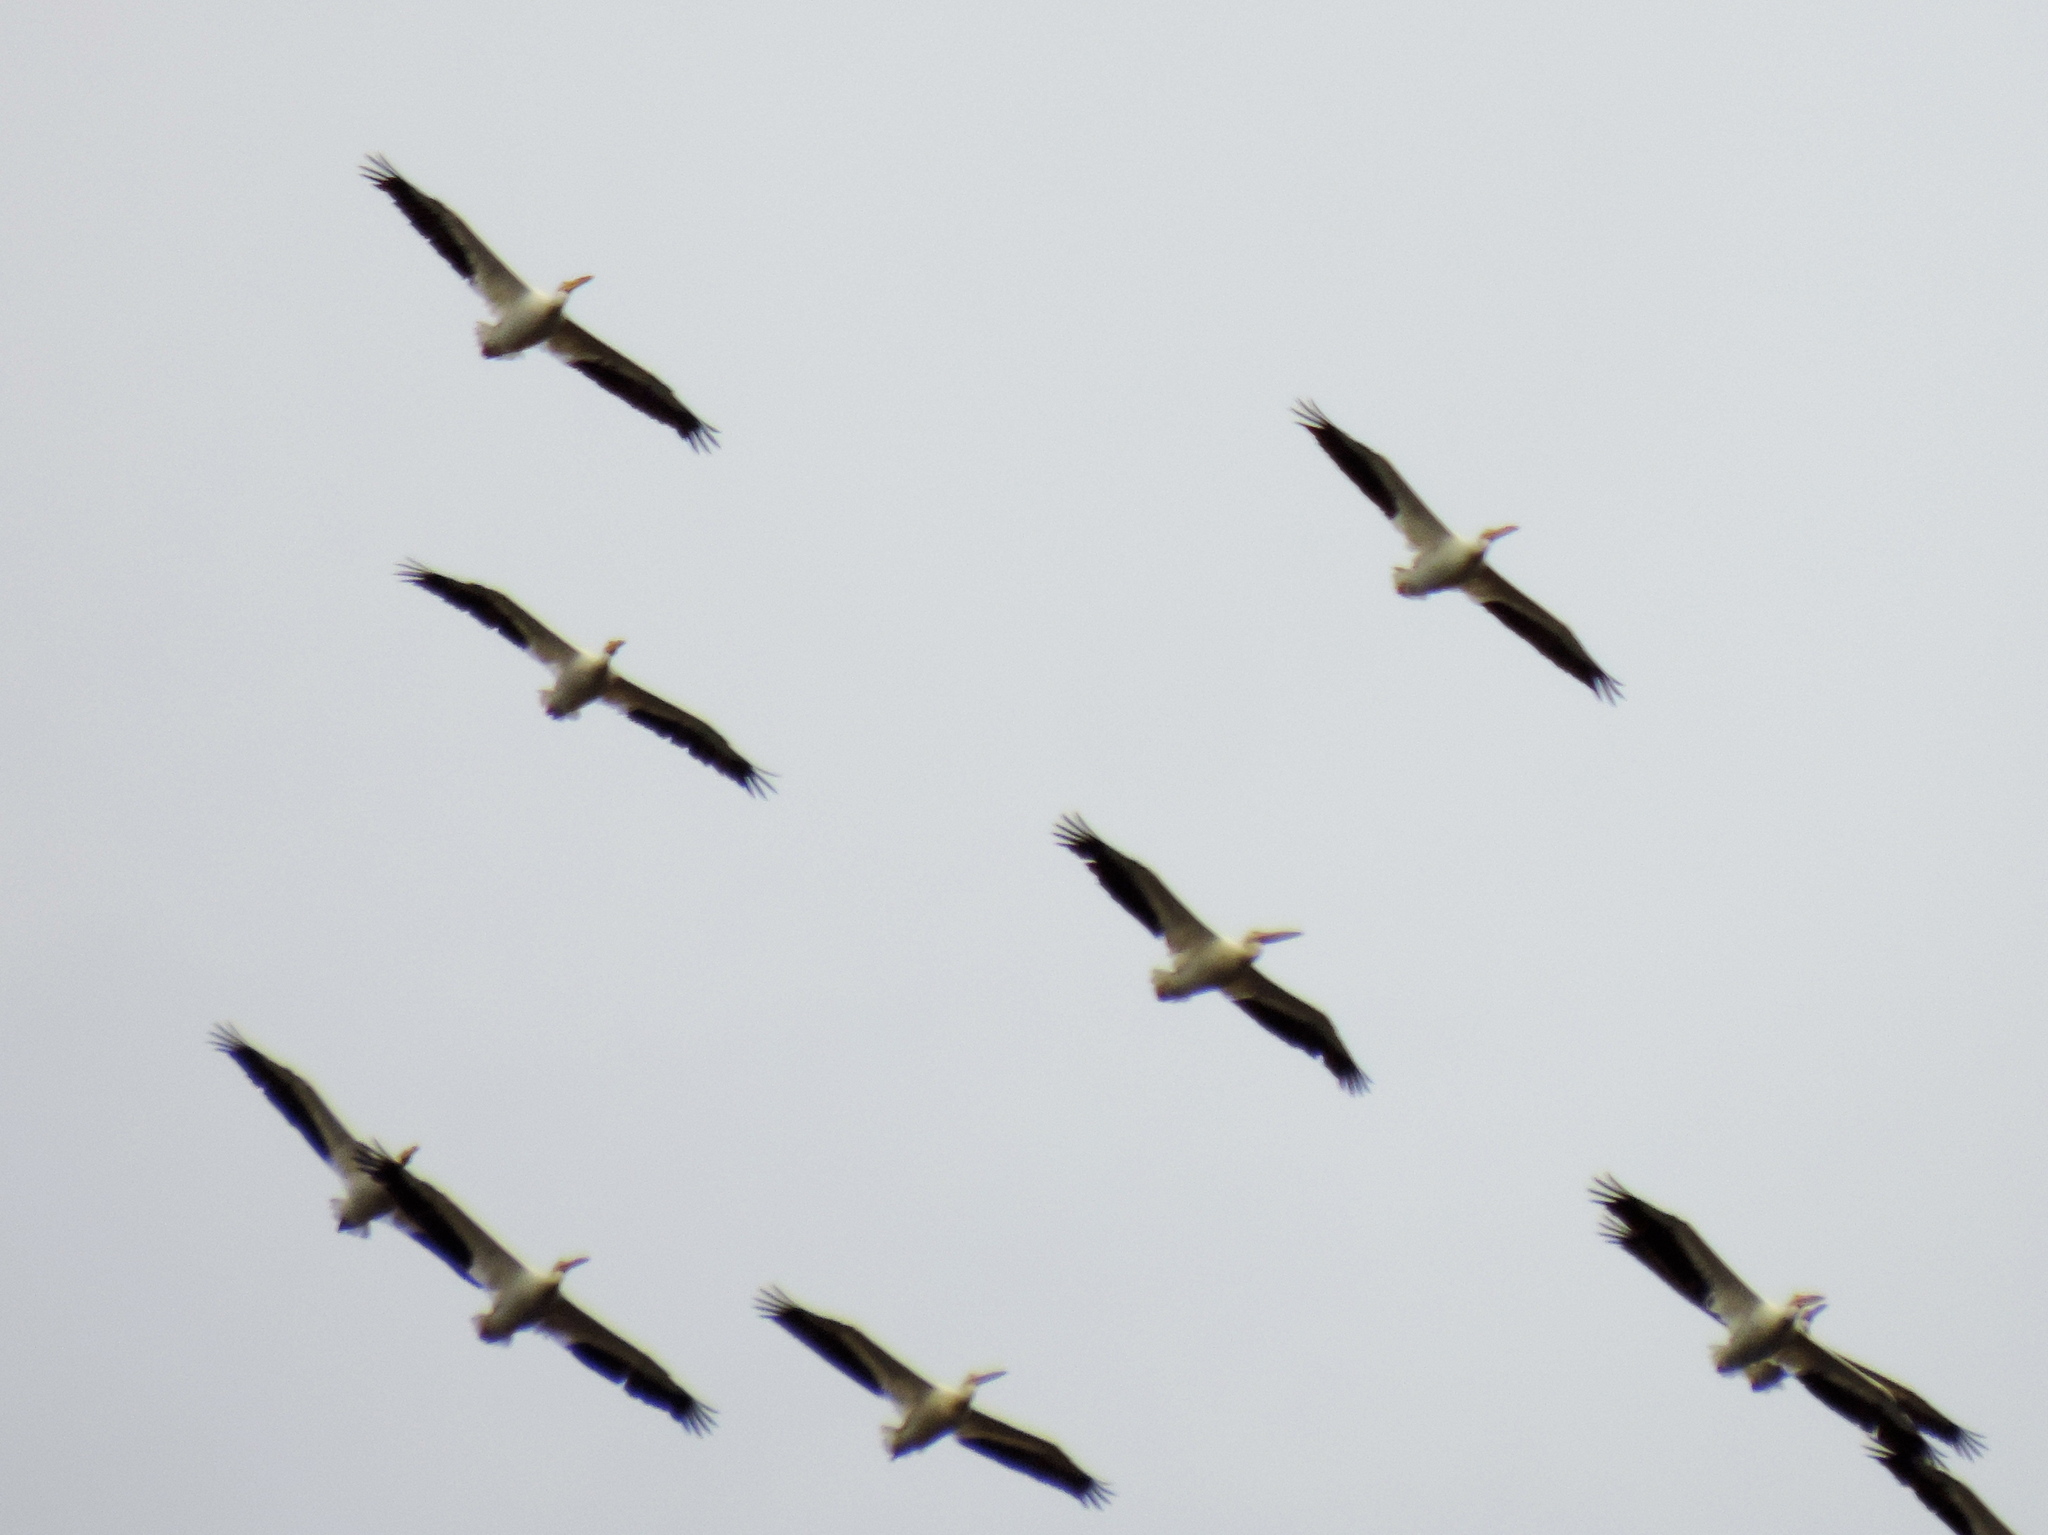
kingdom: Animalia
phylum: Chordata
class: Aves
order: Pelecaniformes
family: Pelecanidae
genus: Pelecanus
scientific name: Pelecanus erythrorhynchos
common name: American white pelican
